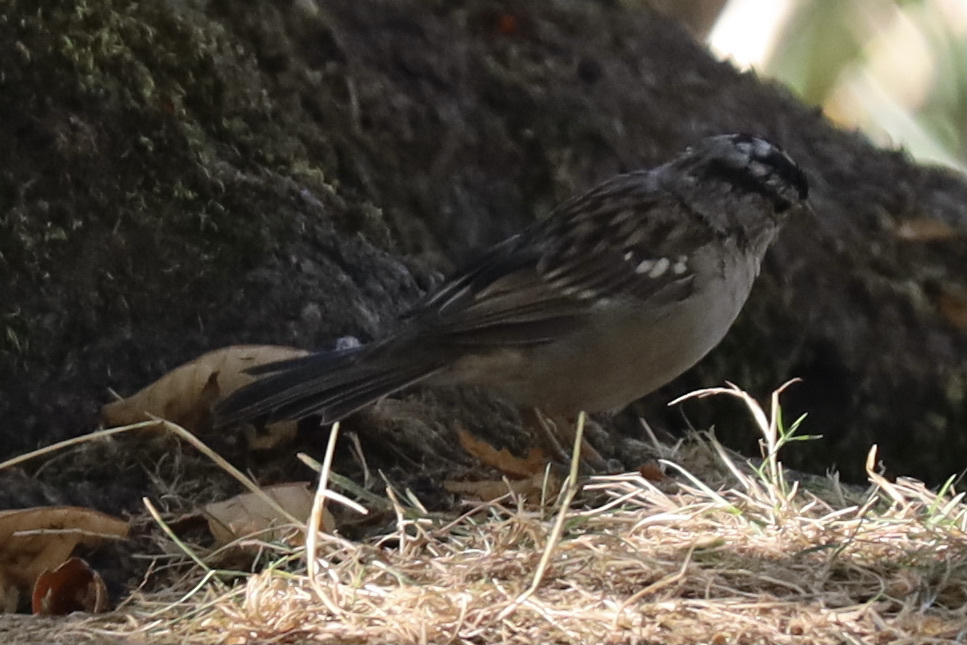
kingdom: Animalia
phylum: Chordata
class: Aves
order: Passeriformes
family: Passerellidae
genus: Zonotrichia
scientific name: Zonotrichia leucophrys
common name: White-crowned sparrow
